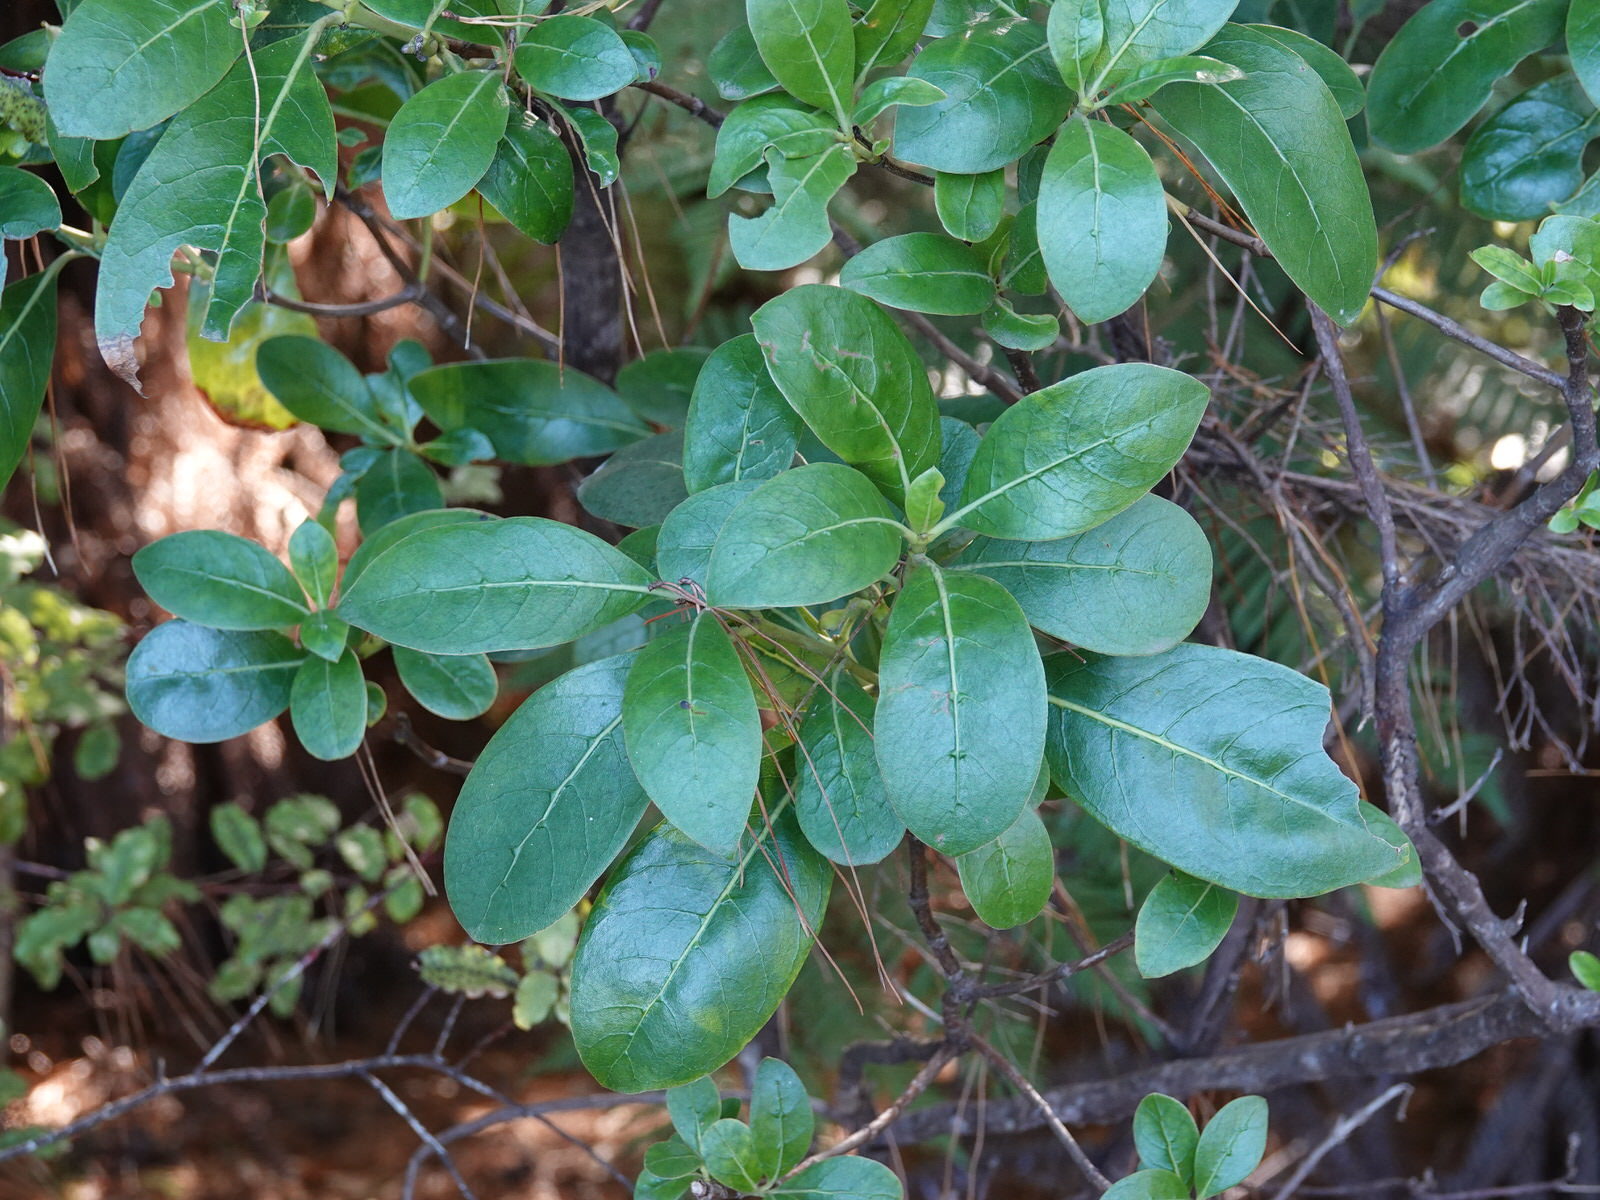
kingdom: Plantae
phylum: Tracheophyta
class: Magnoliopsida
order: Gentianales
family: Rubiaceae
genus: Coprosma
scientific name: Coprosma lucida
